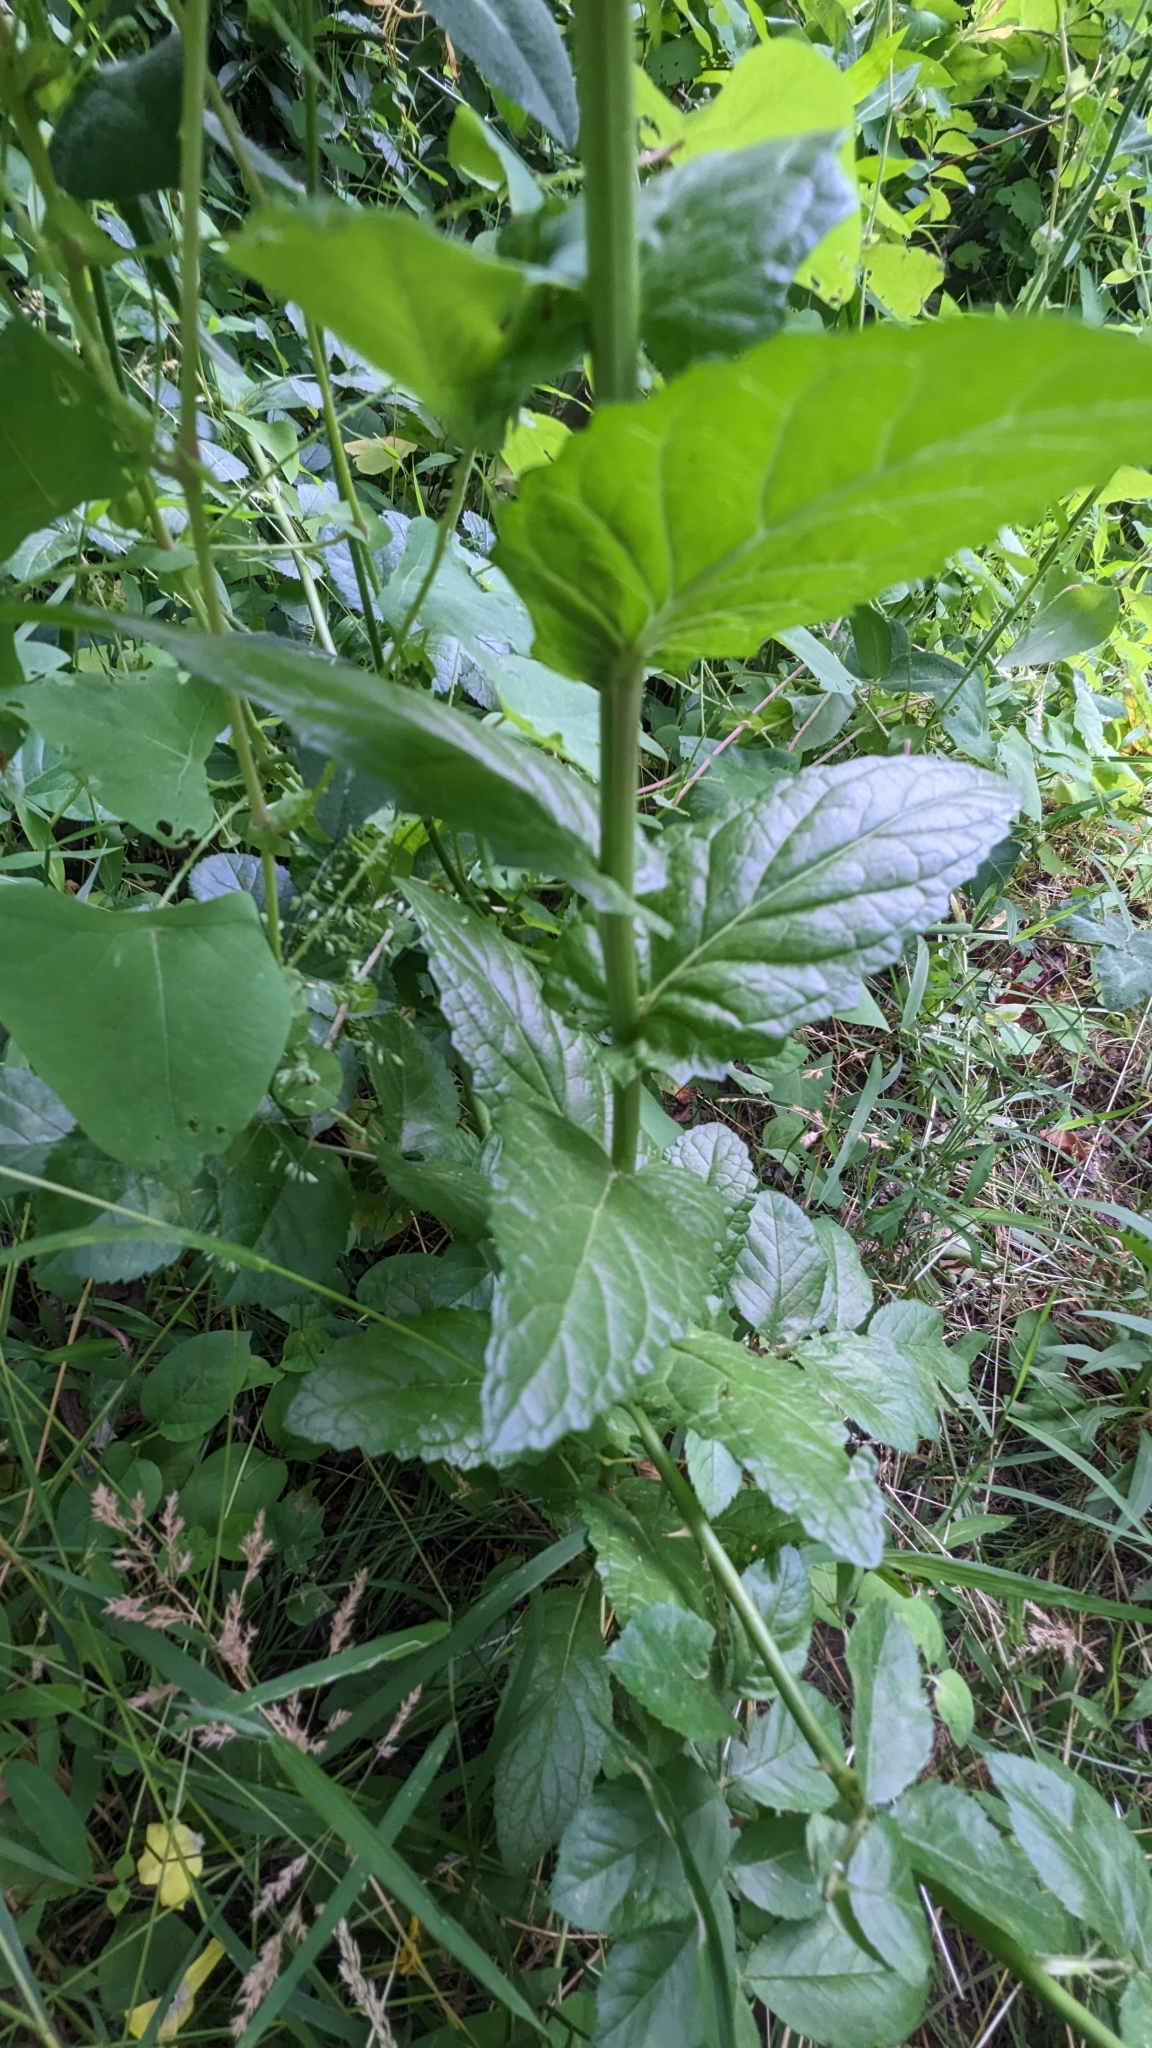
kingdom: Plantae
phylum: Tracheophyta
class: Magnoliopsida
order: Lamiales
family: Scrophulariaceae
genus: Verbascum
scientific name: Verbascum blattaria
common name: Moth mullein
